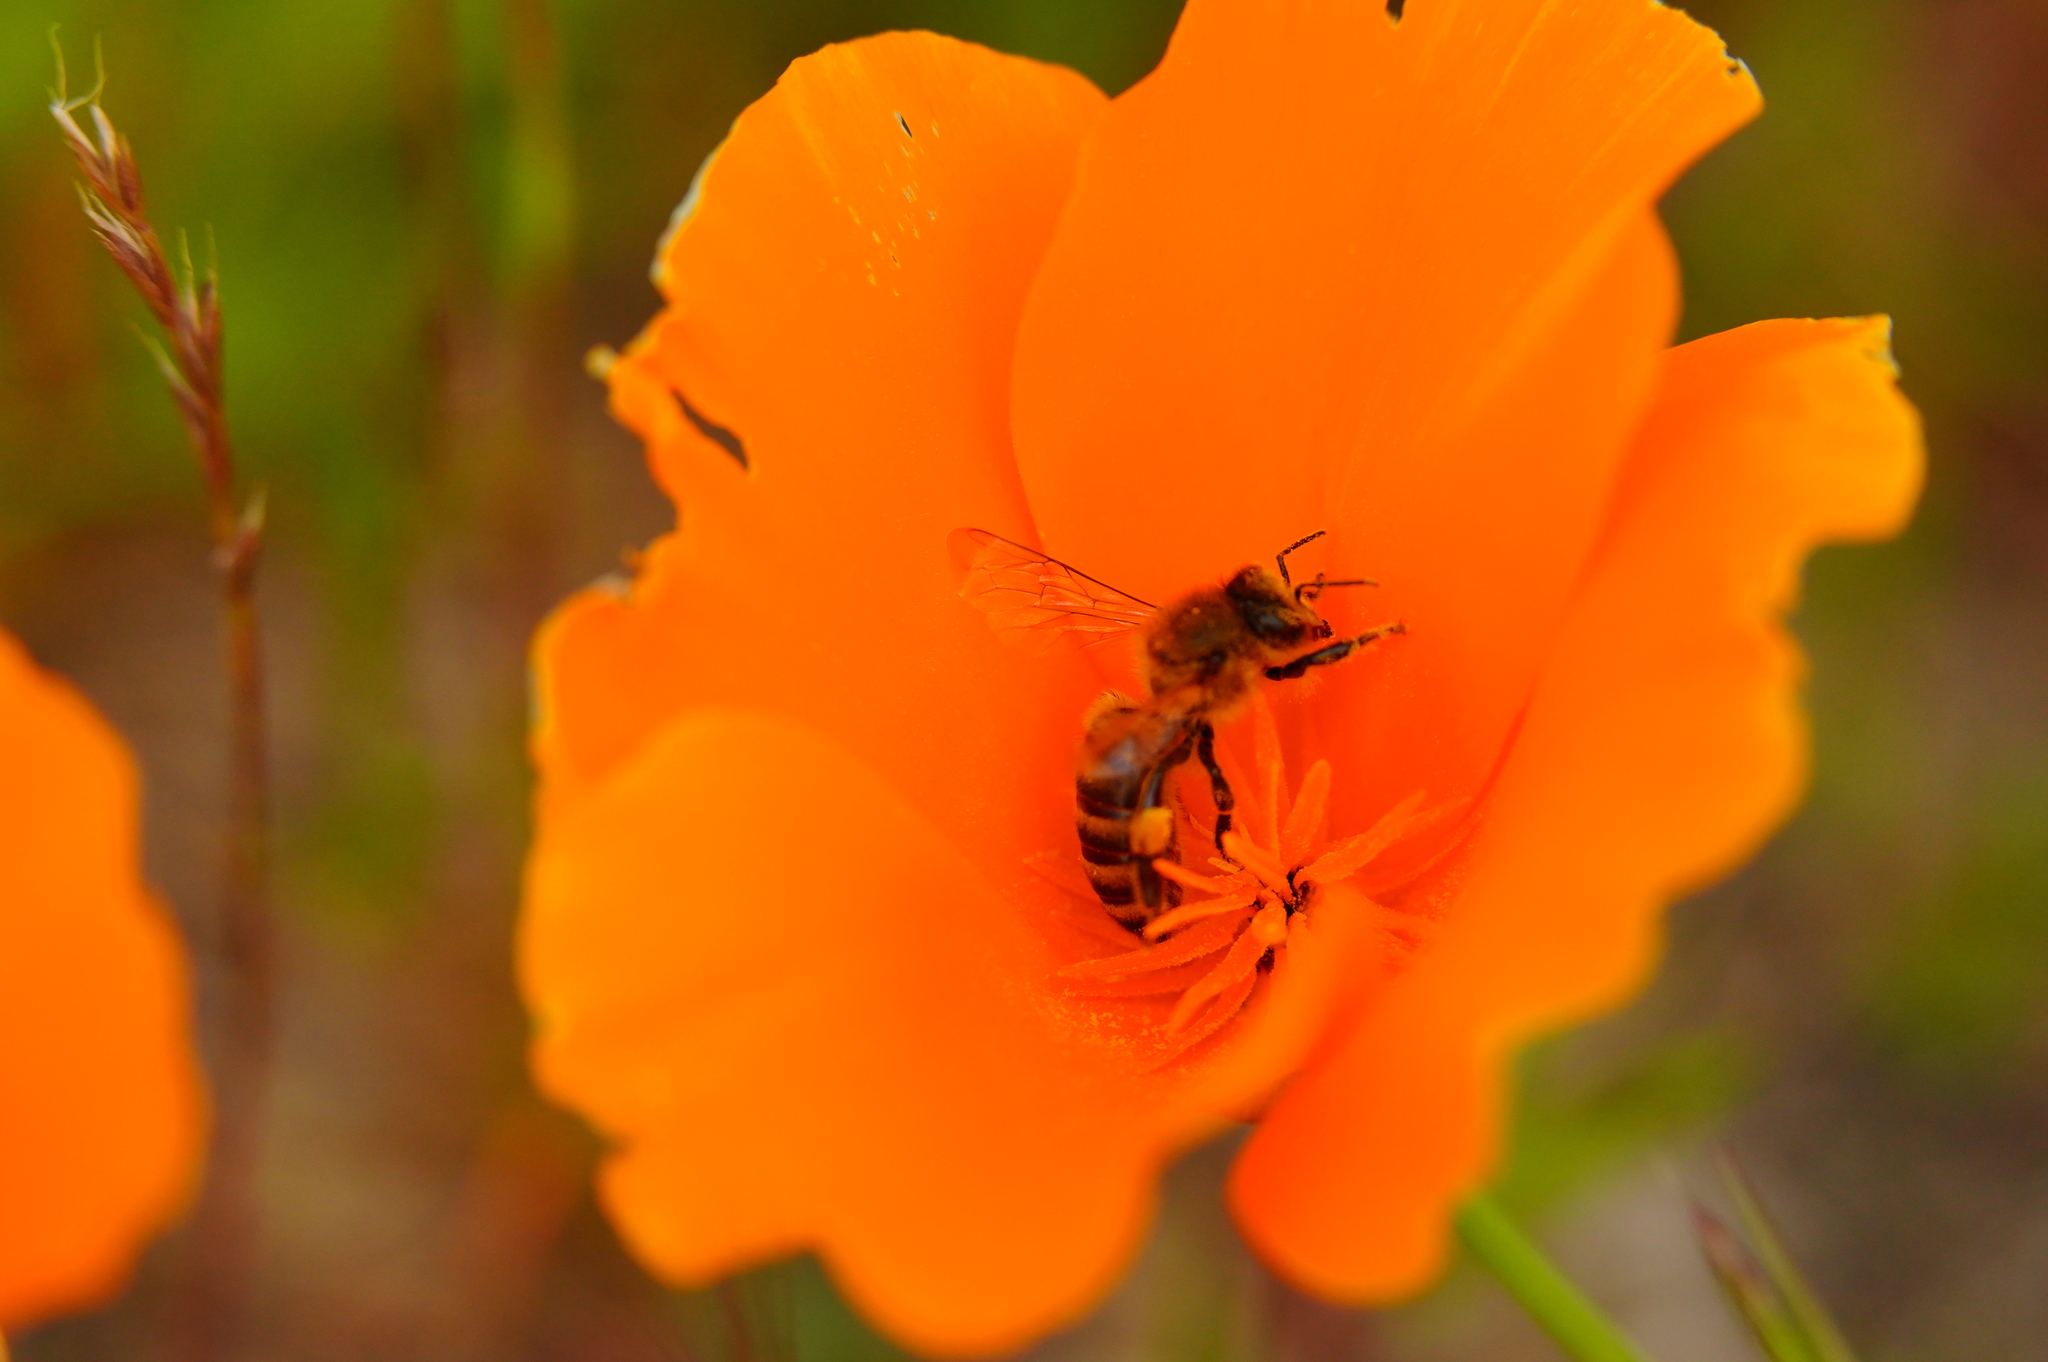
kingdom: Animalia
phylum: Arthropoda
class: Insecta
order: Hymenoptera
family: Apidae
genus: Apis
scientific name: Apis mellifera
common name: Honey bee
